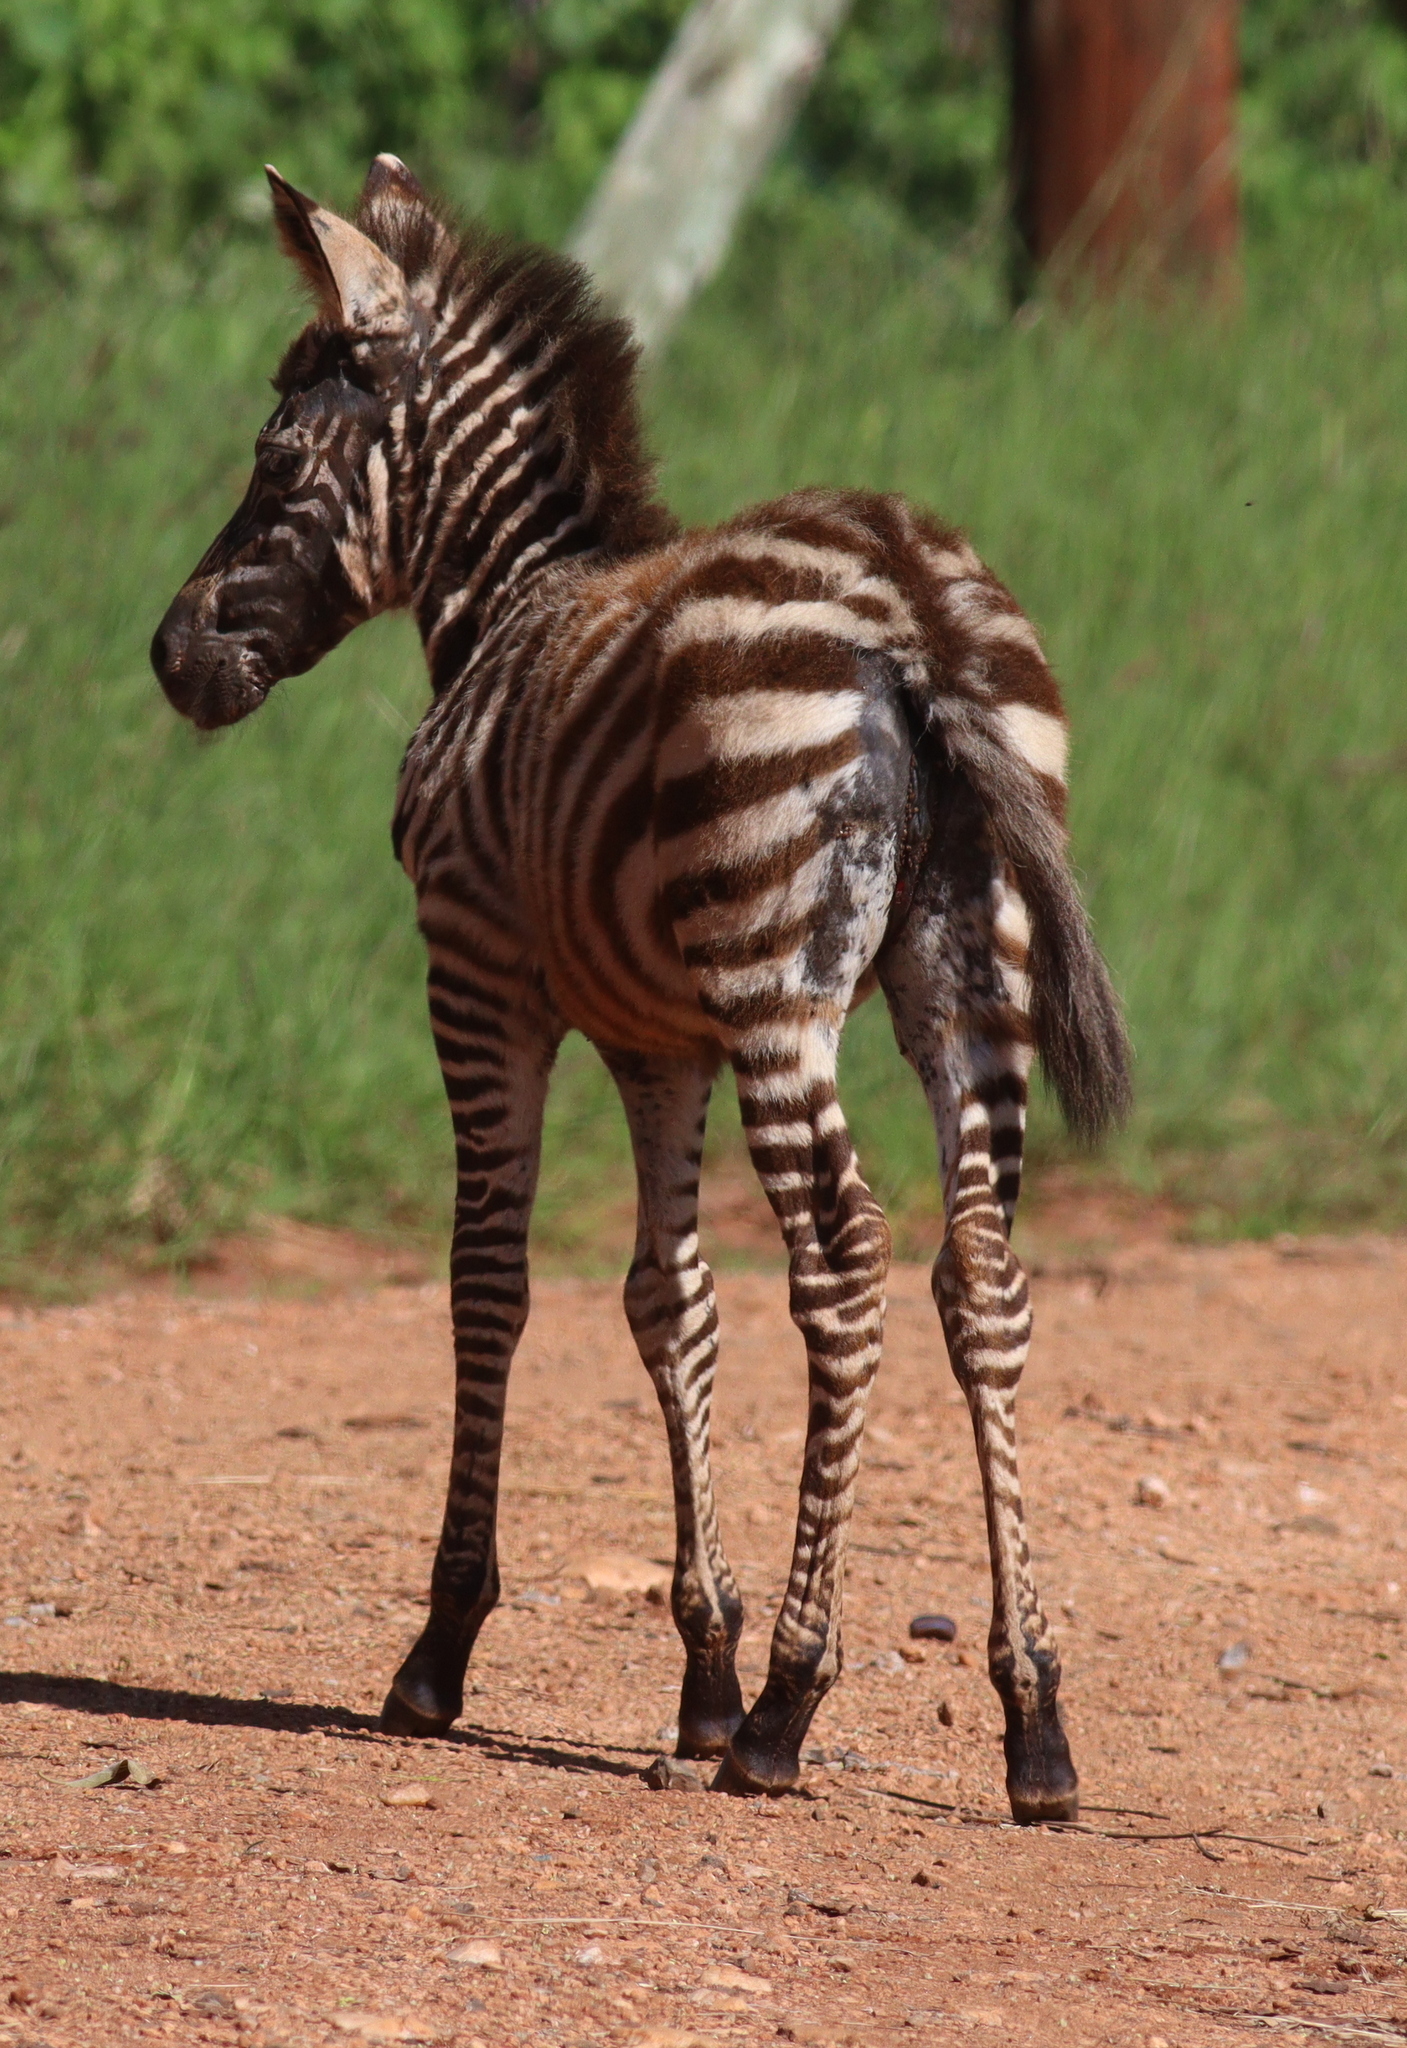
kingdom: Animalia
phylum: Chordata
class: Mammalia
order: Perissodactyla
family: Equidae
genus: Equus
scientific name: Equus quagga
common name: Plains zebra
